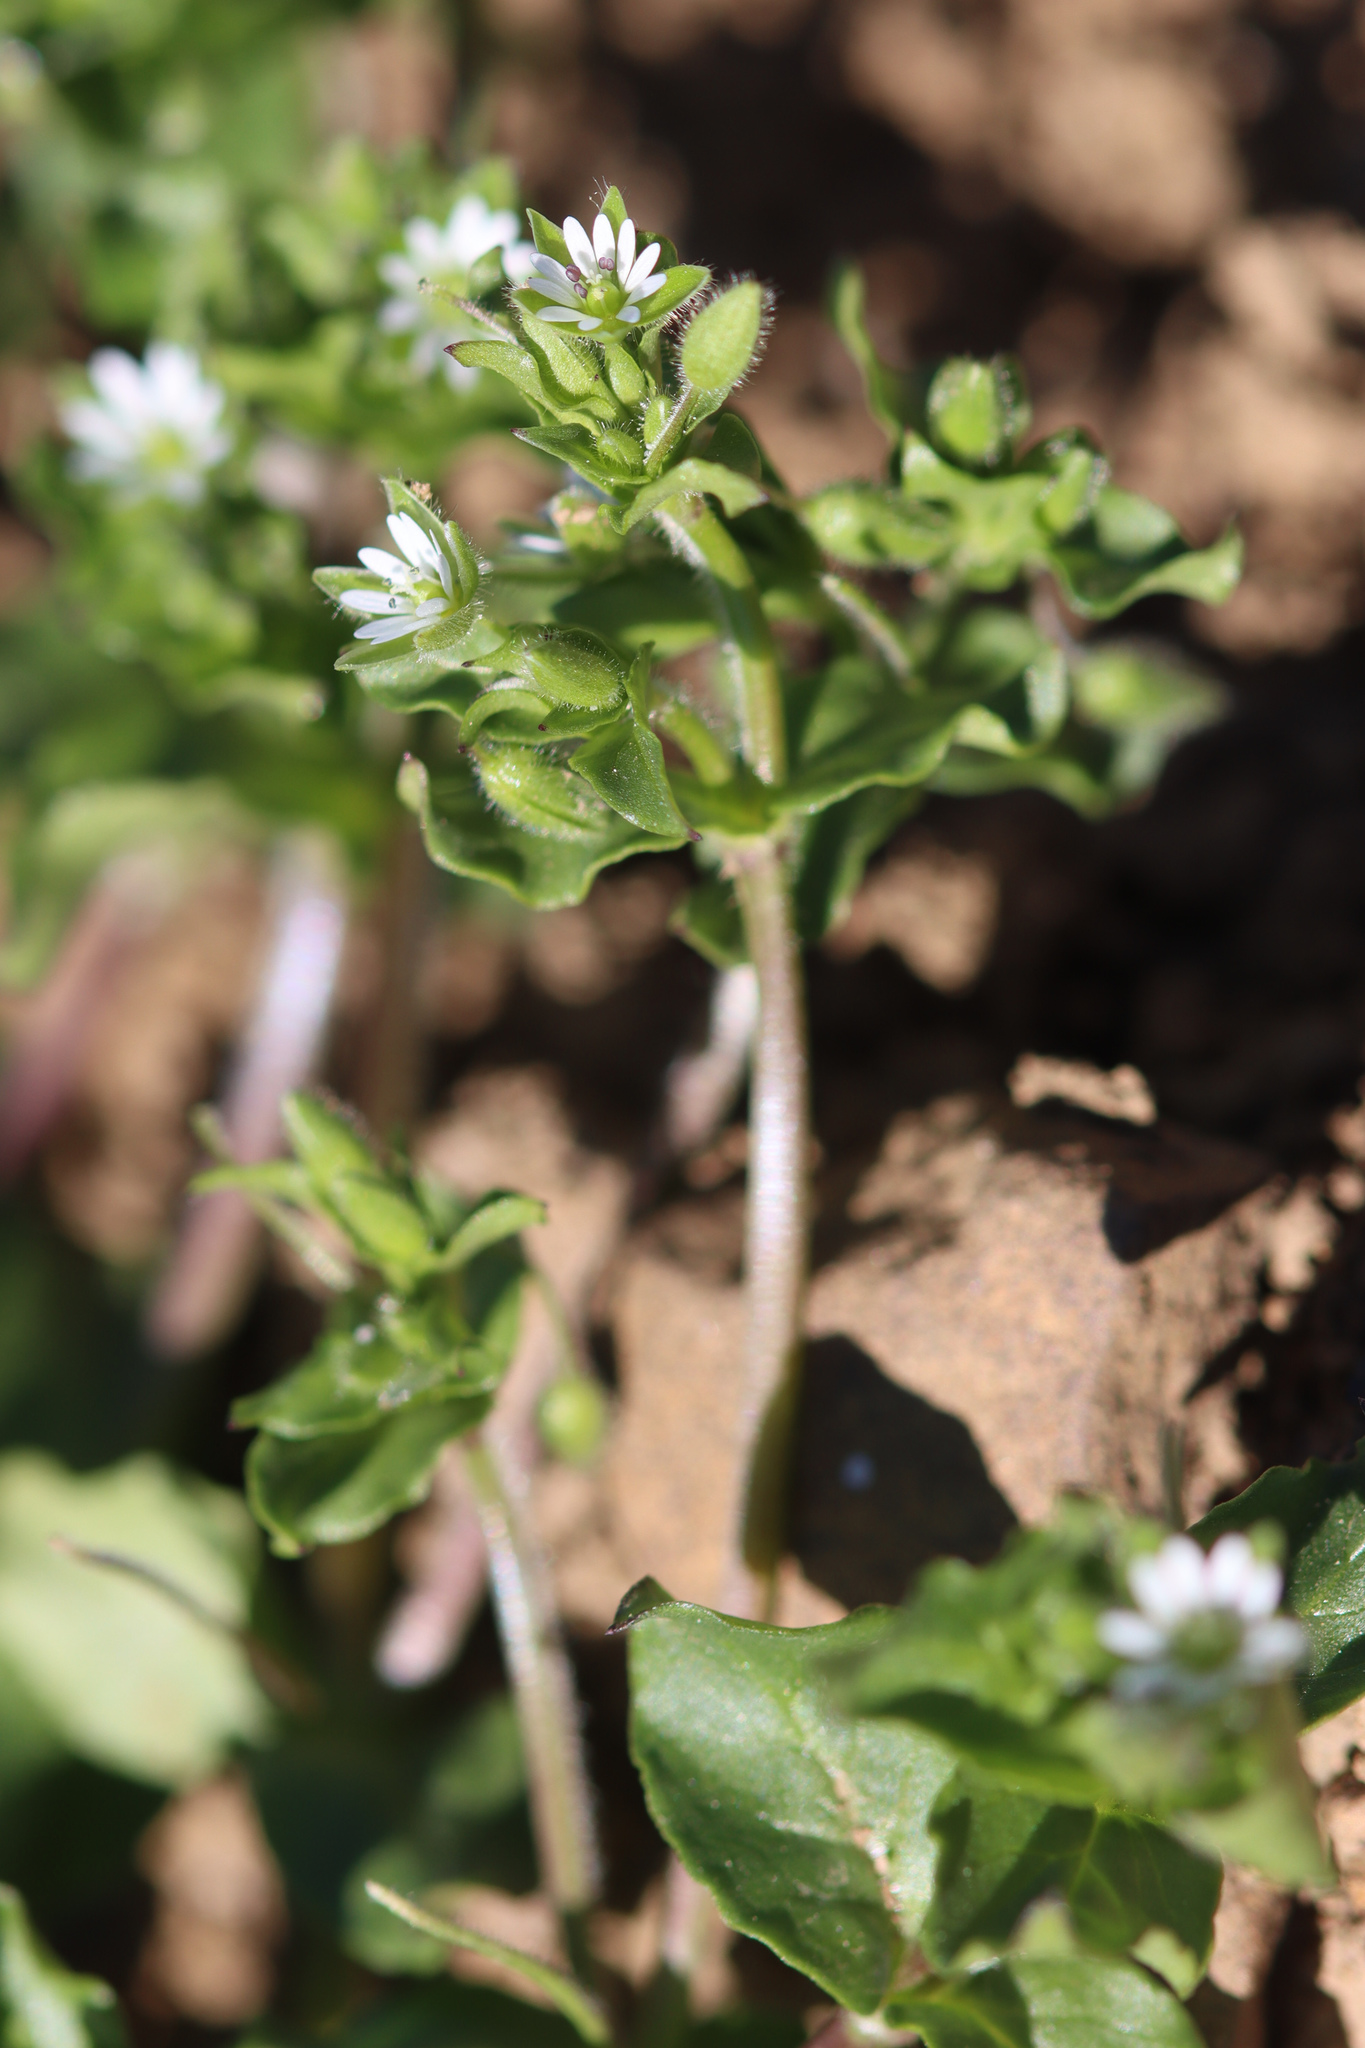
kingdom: Plantae
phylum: Tracheophyta
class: Magnoliopsida
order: Caryophyllales
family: Caryophyllaceae
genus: Stellaria
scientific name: Stellaria media
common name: Common chickweed
